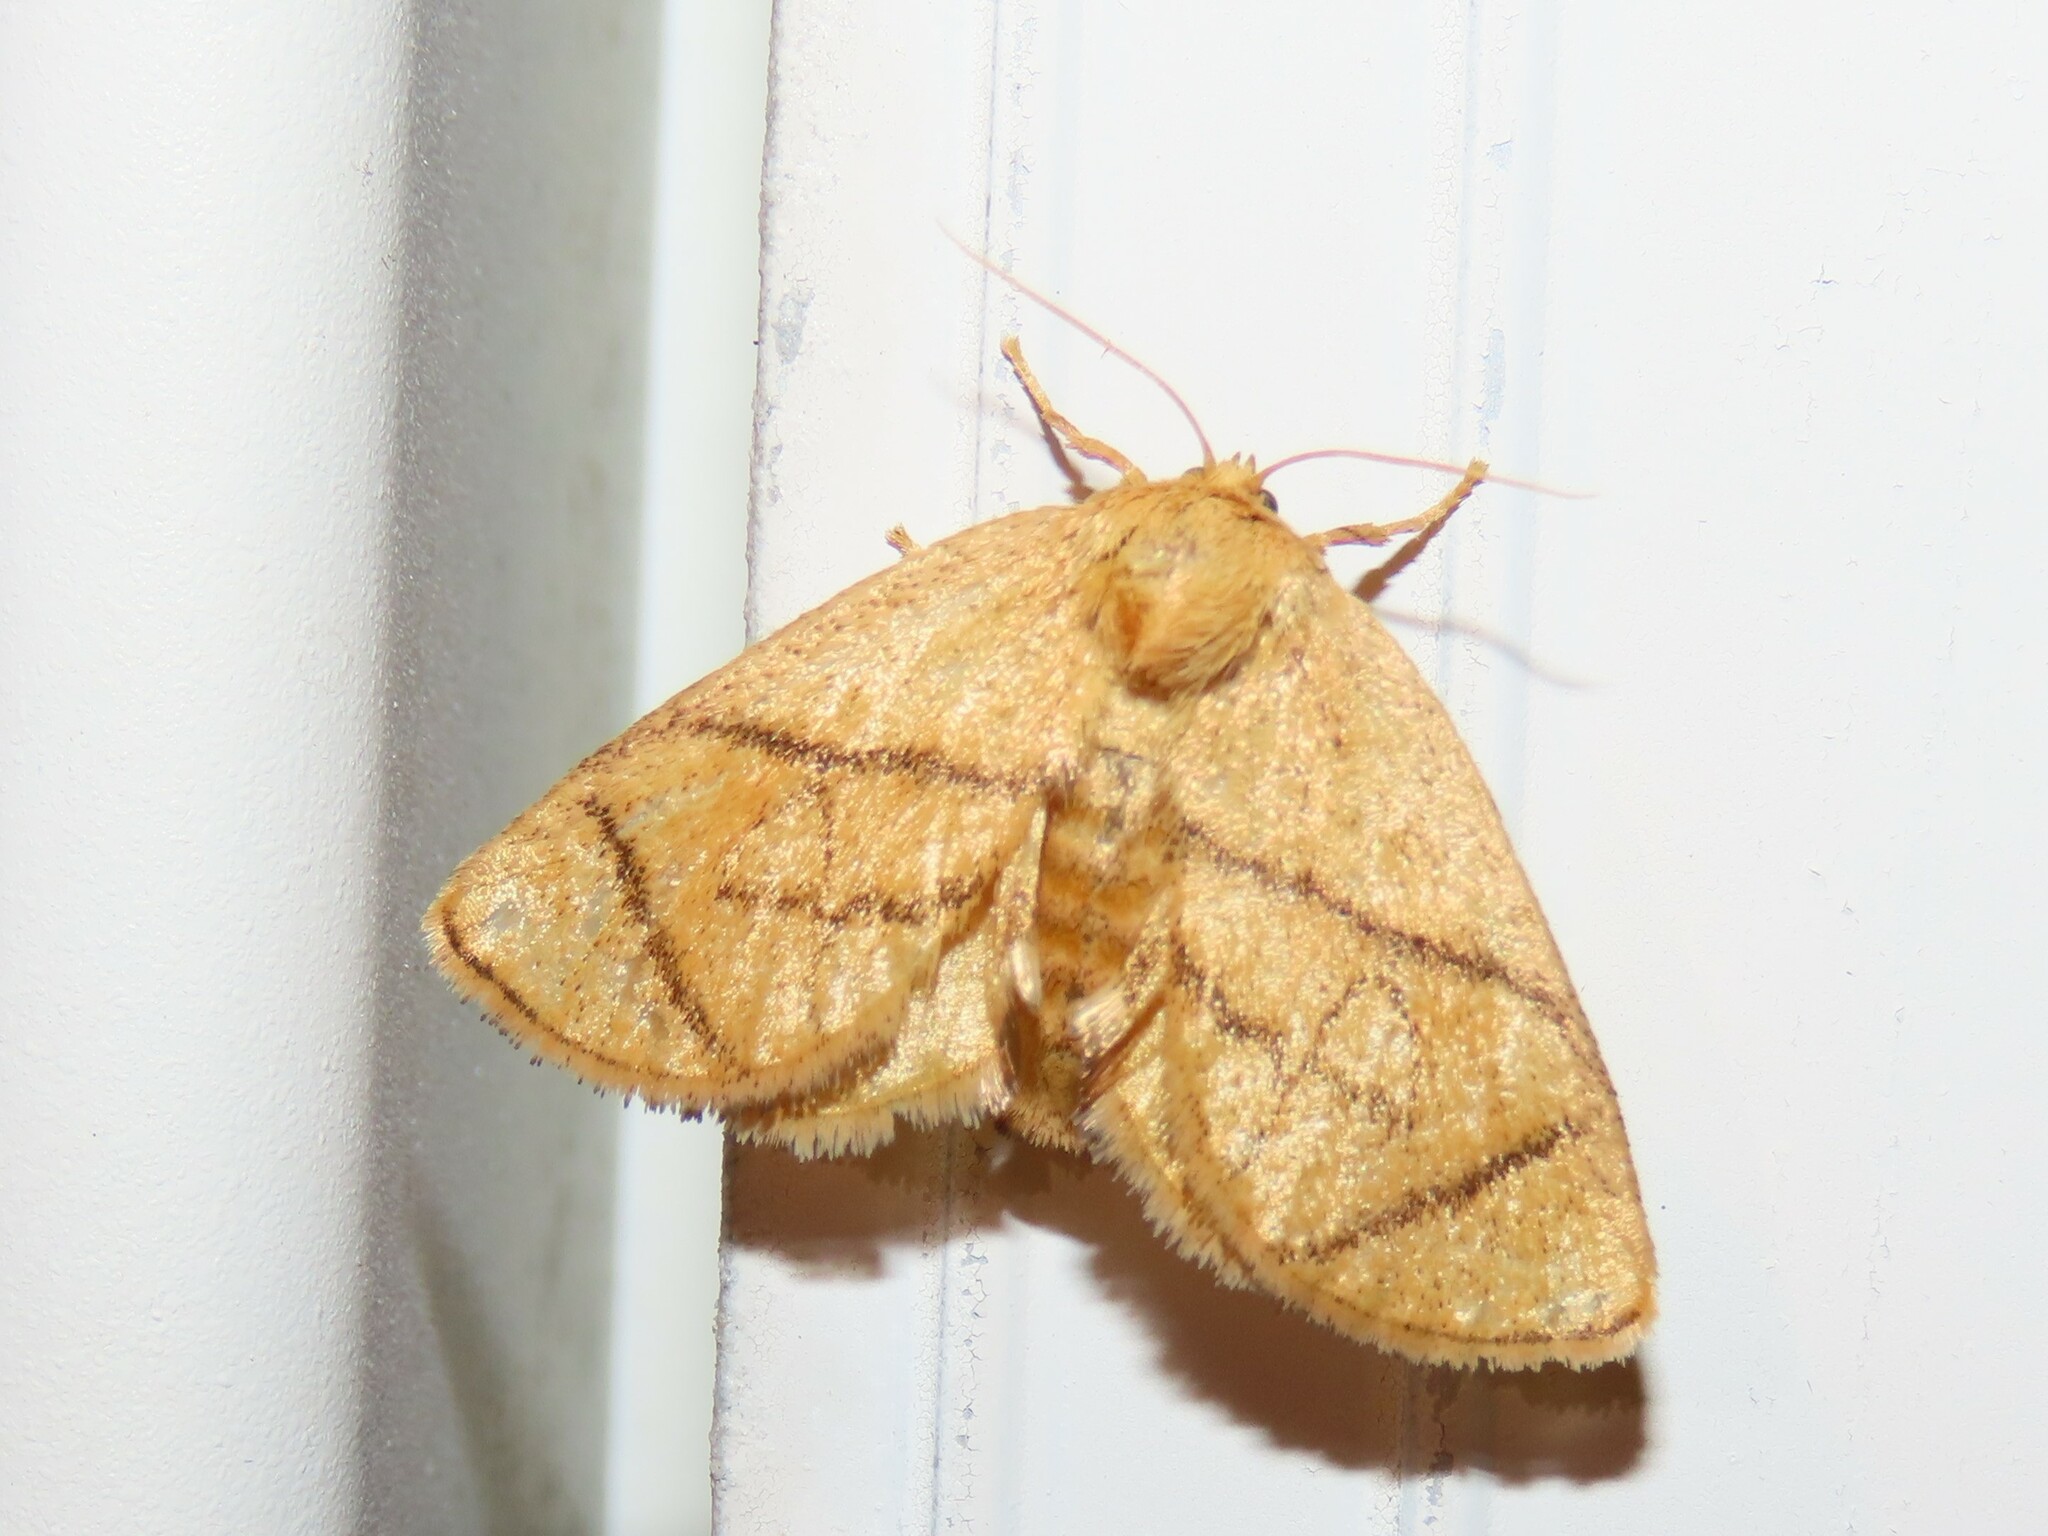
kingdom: Animalia
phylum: Arthropoda
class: Insecta
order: Lepidoptera
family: Limacodidae
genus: Apoda
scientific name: Apoda y-inversa
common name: Yellow-collared slug moth
